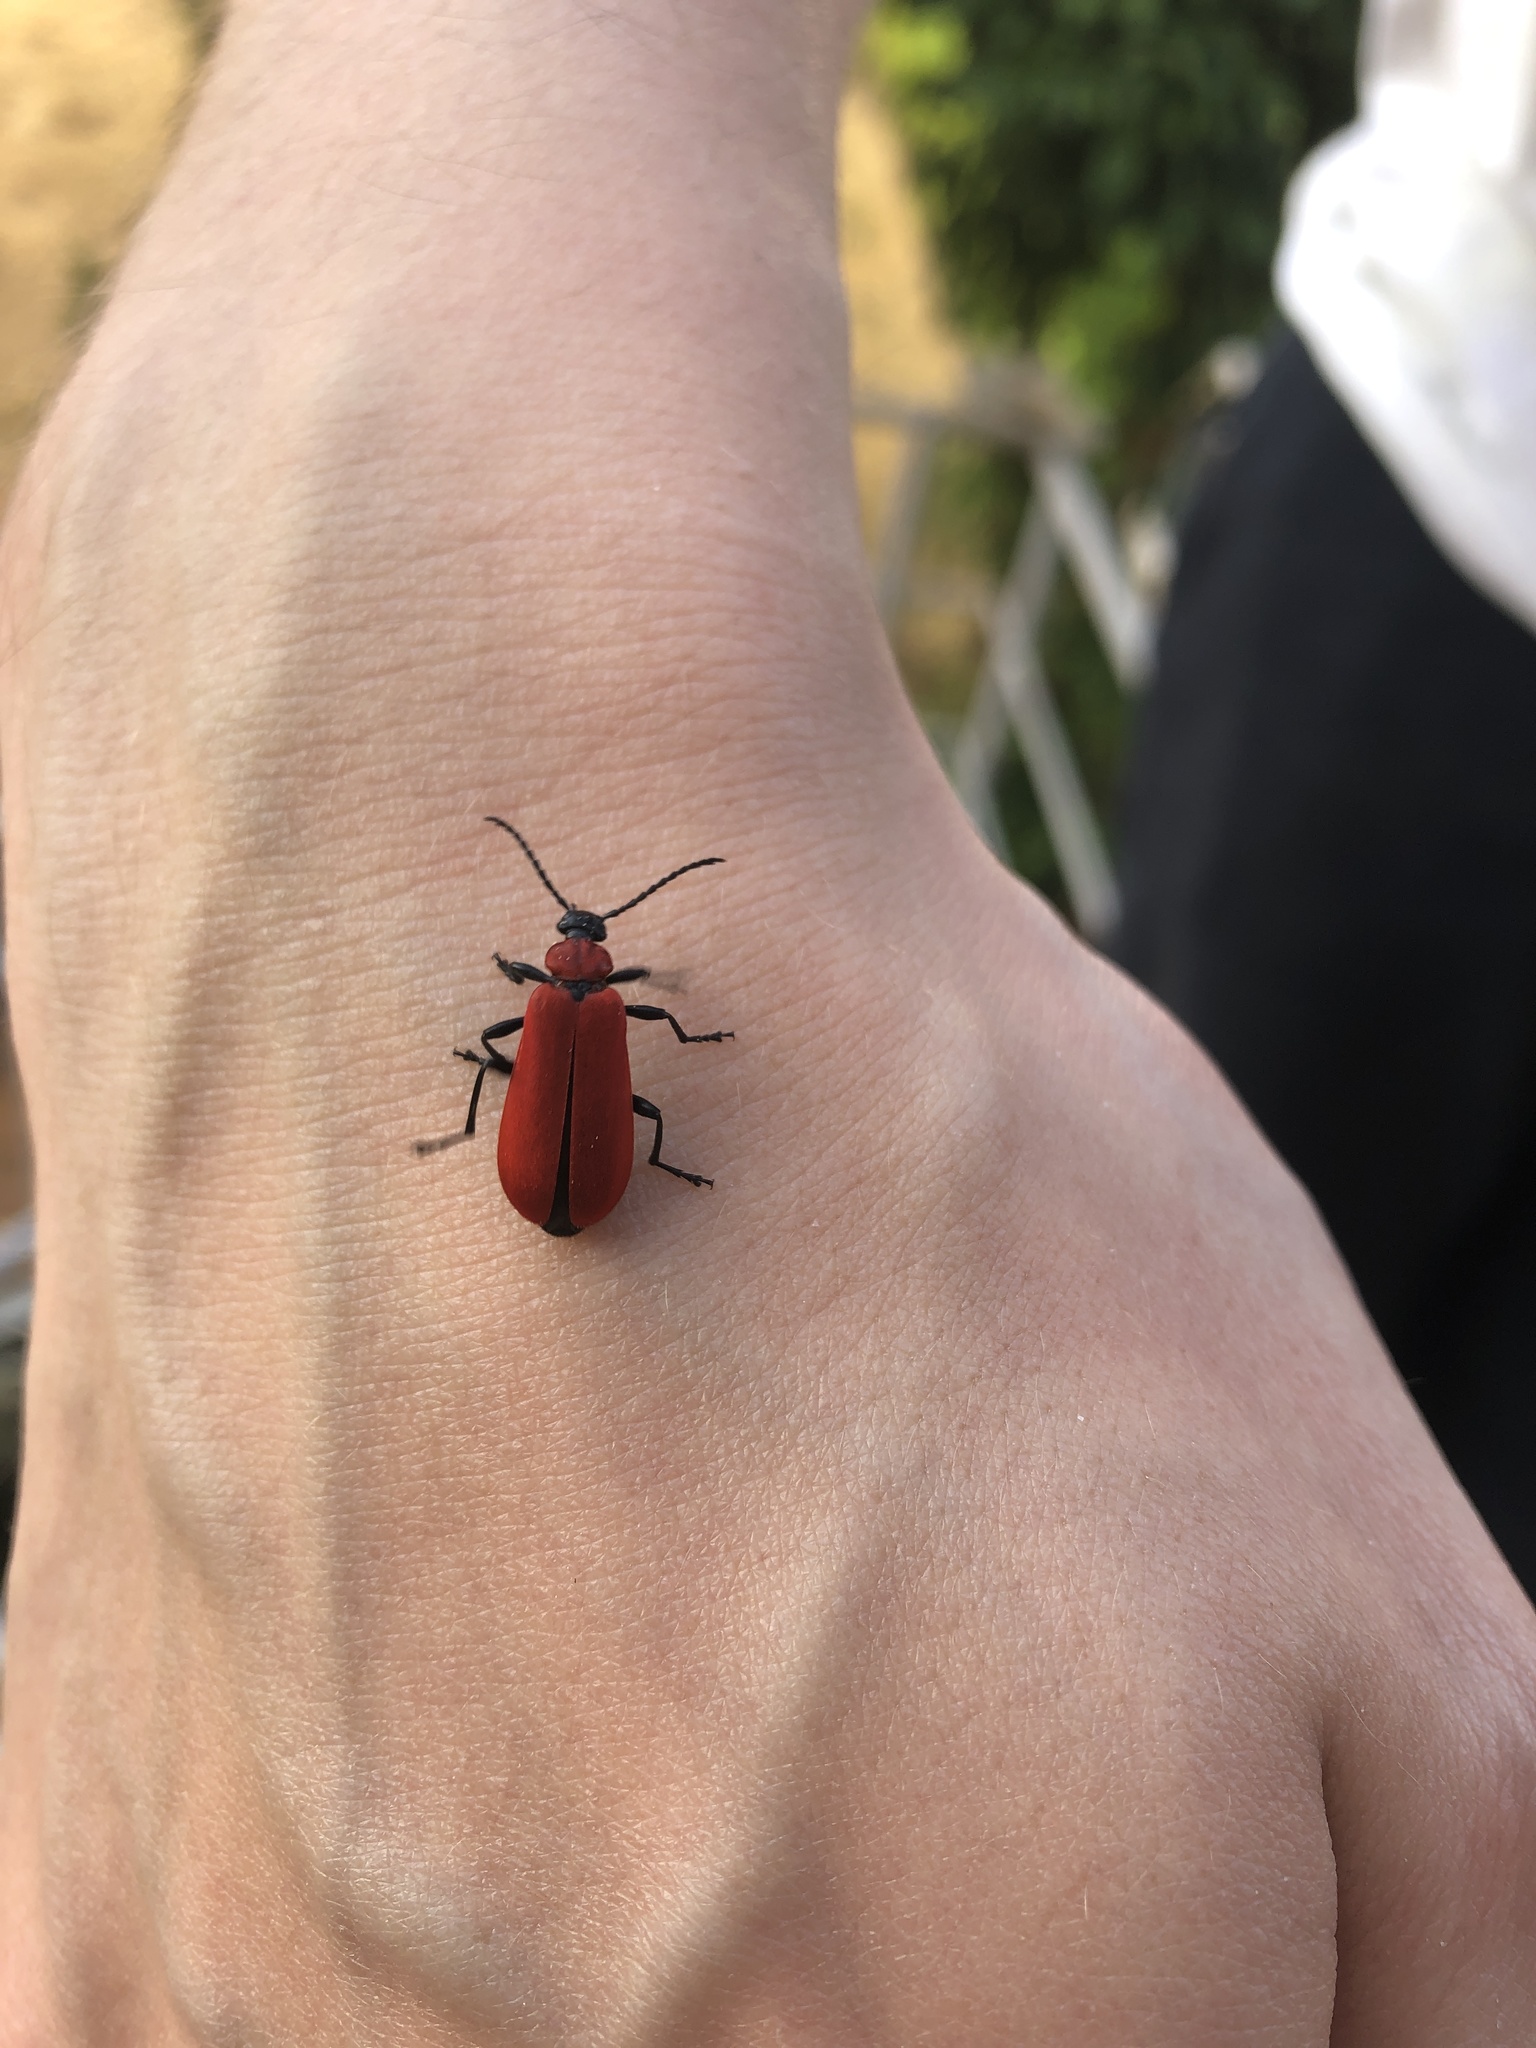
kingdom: Animalia
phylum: Arthropoda
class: Insecta
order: Coleoptera
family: Pyrochroidae
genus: Pyrochroa
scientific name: Pyrochroa coccinea
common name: Black-headed cardinal beetle
